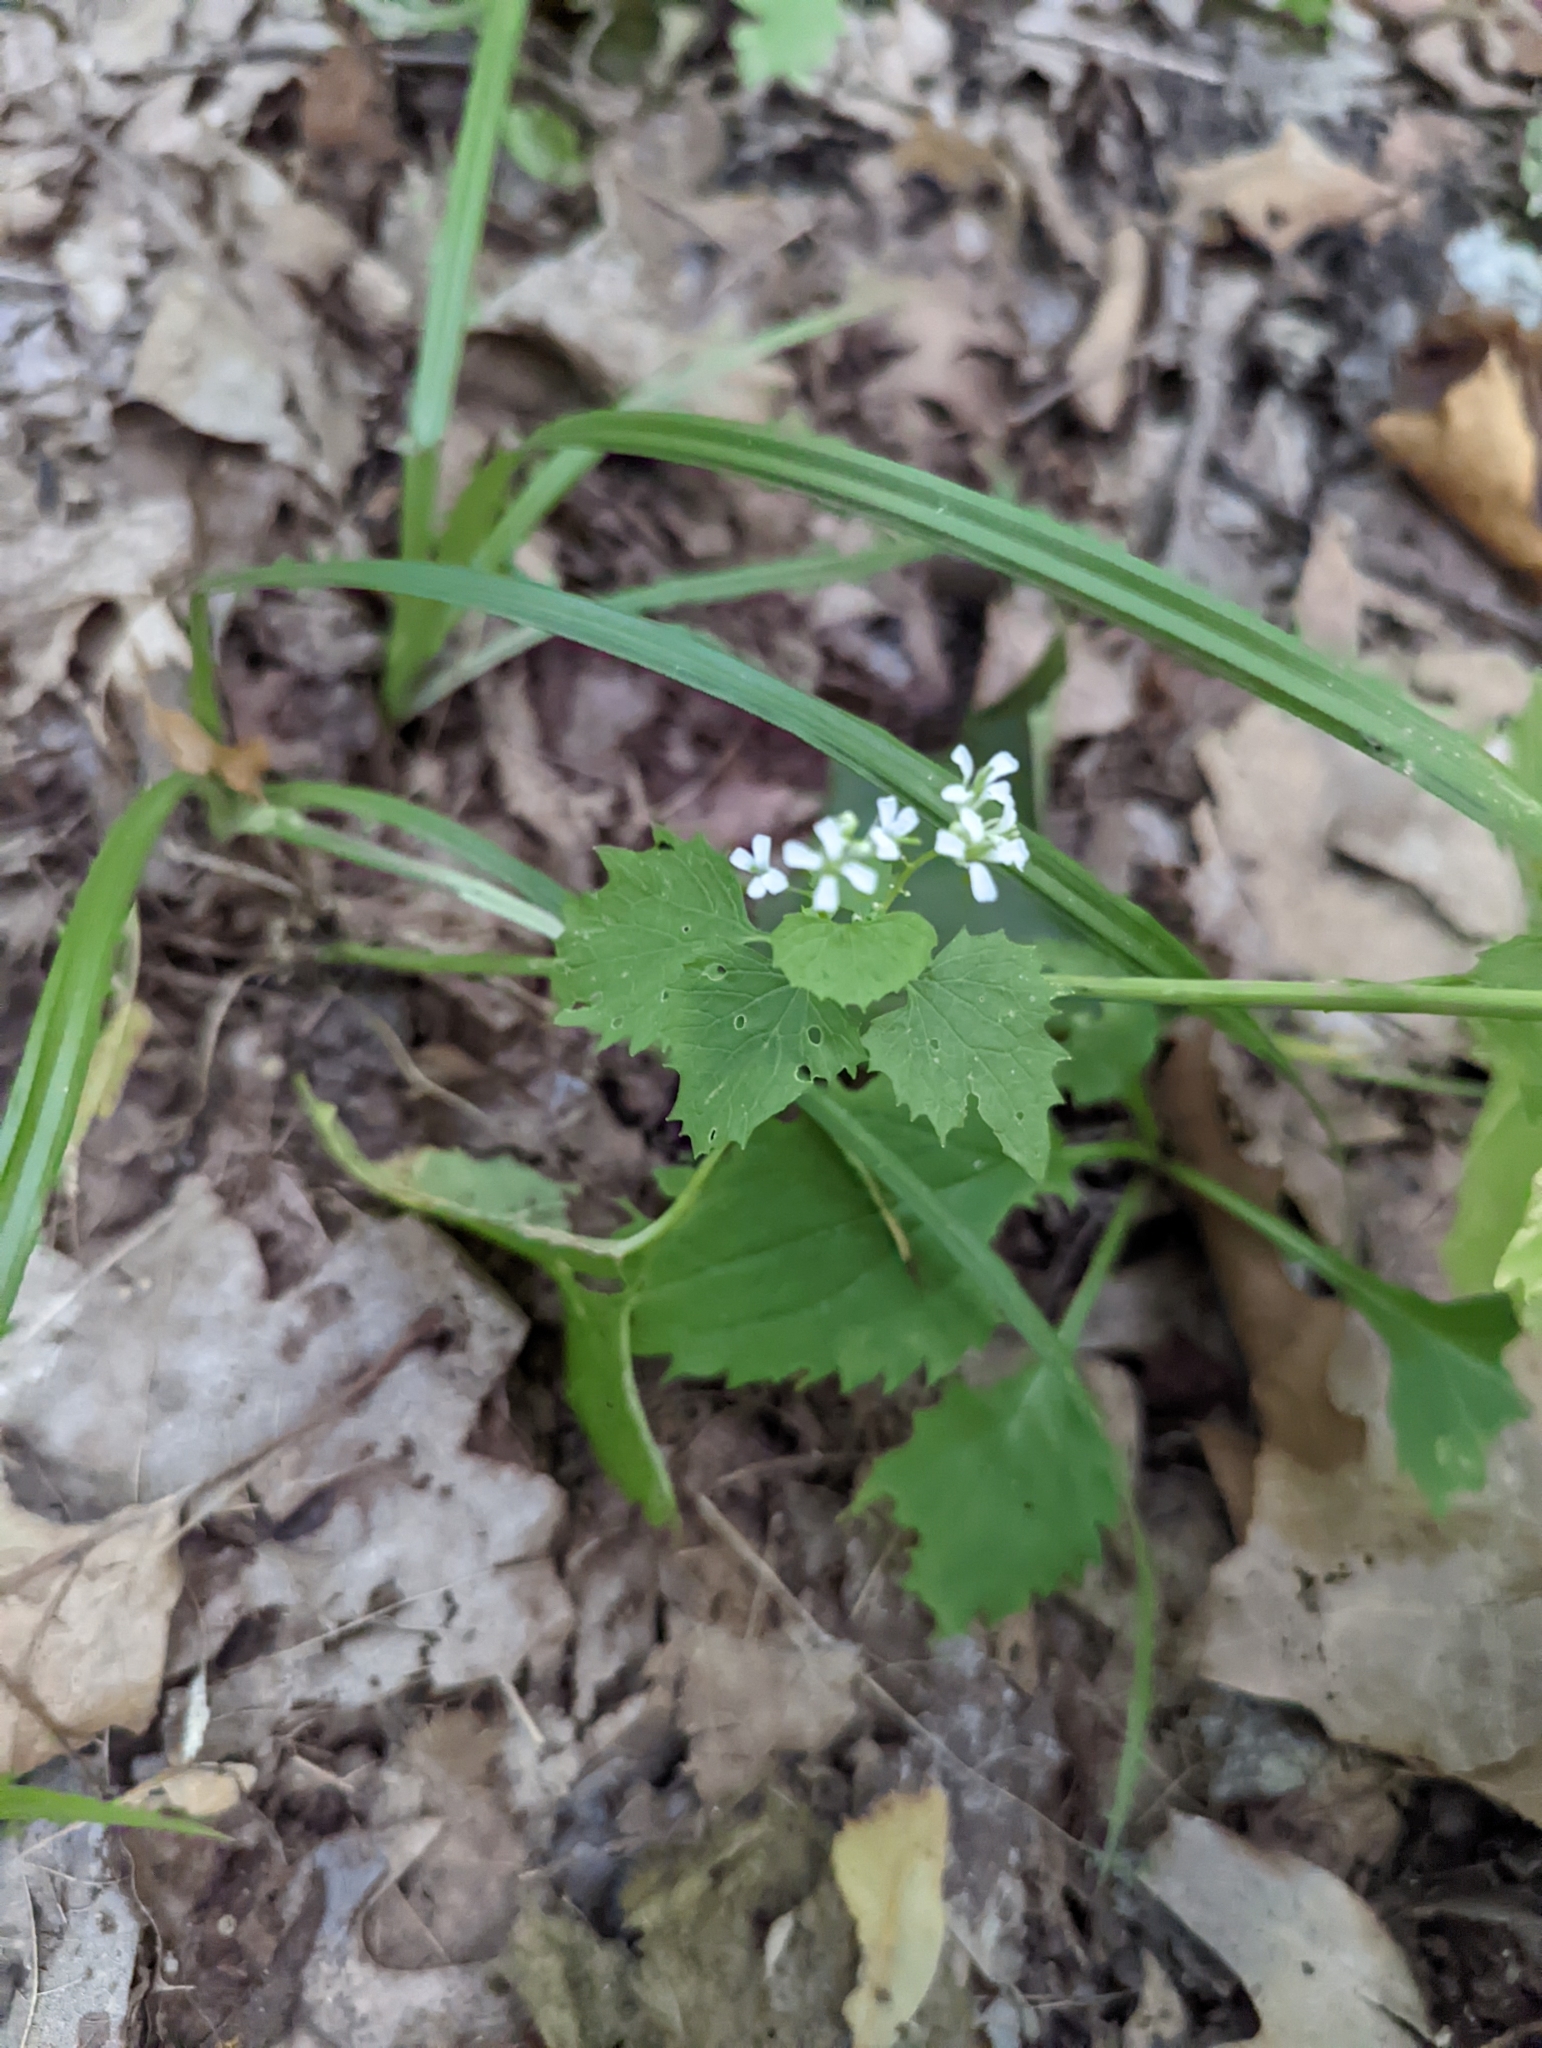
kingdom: Plantae
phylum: Tracheophyta
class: Magnoliopsida
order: Brassicales
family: Brassicaceae
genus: Alliaria
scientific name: Alliaria petiolata
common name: Garlic mustard
